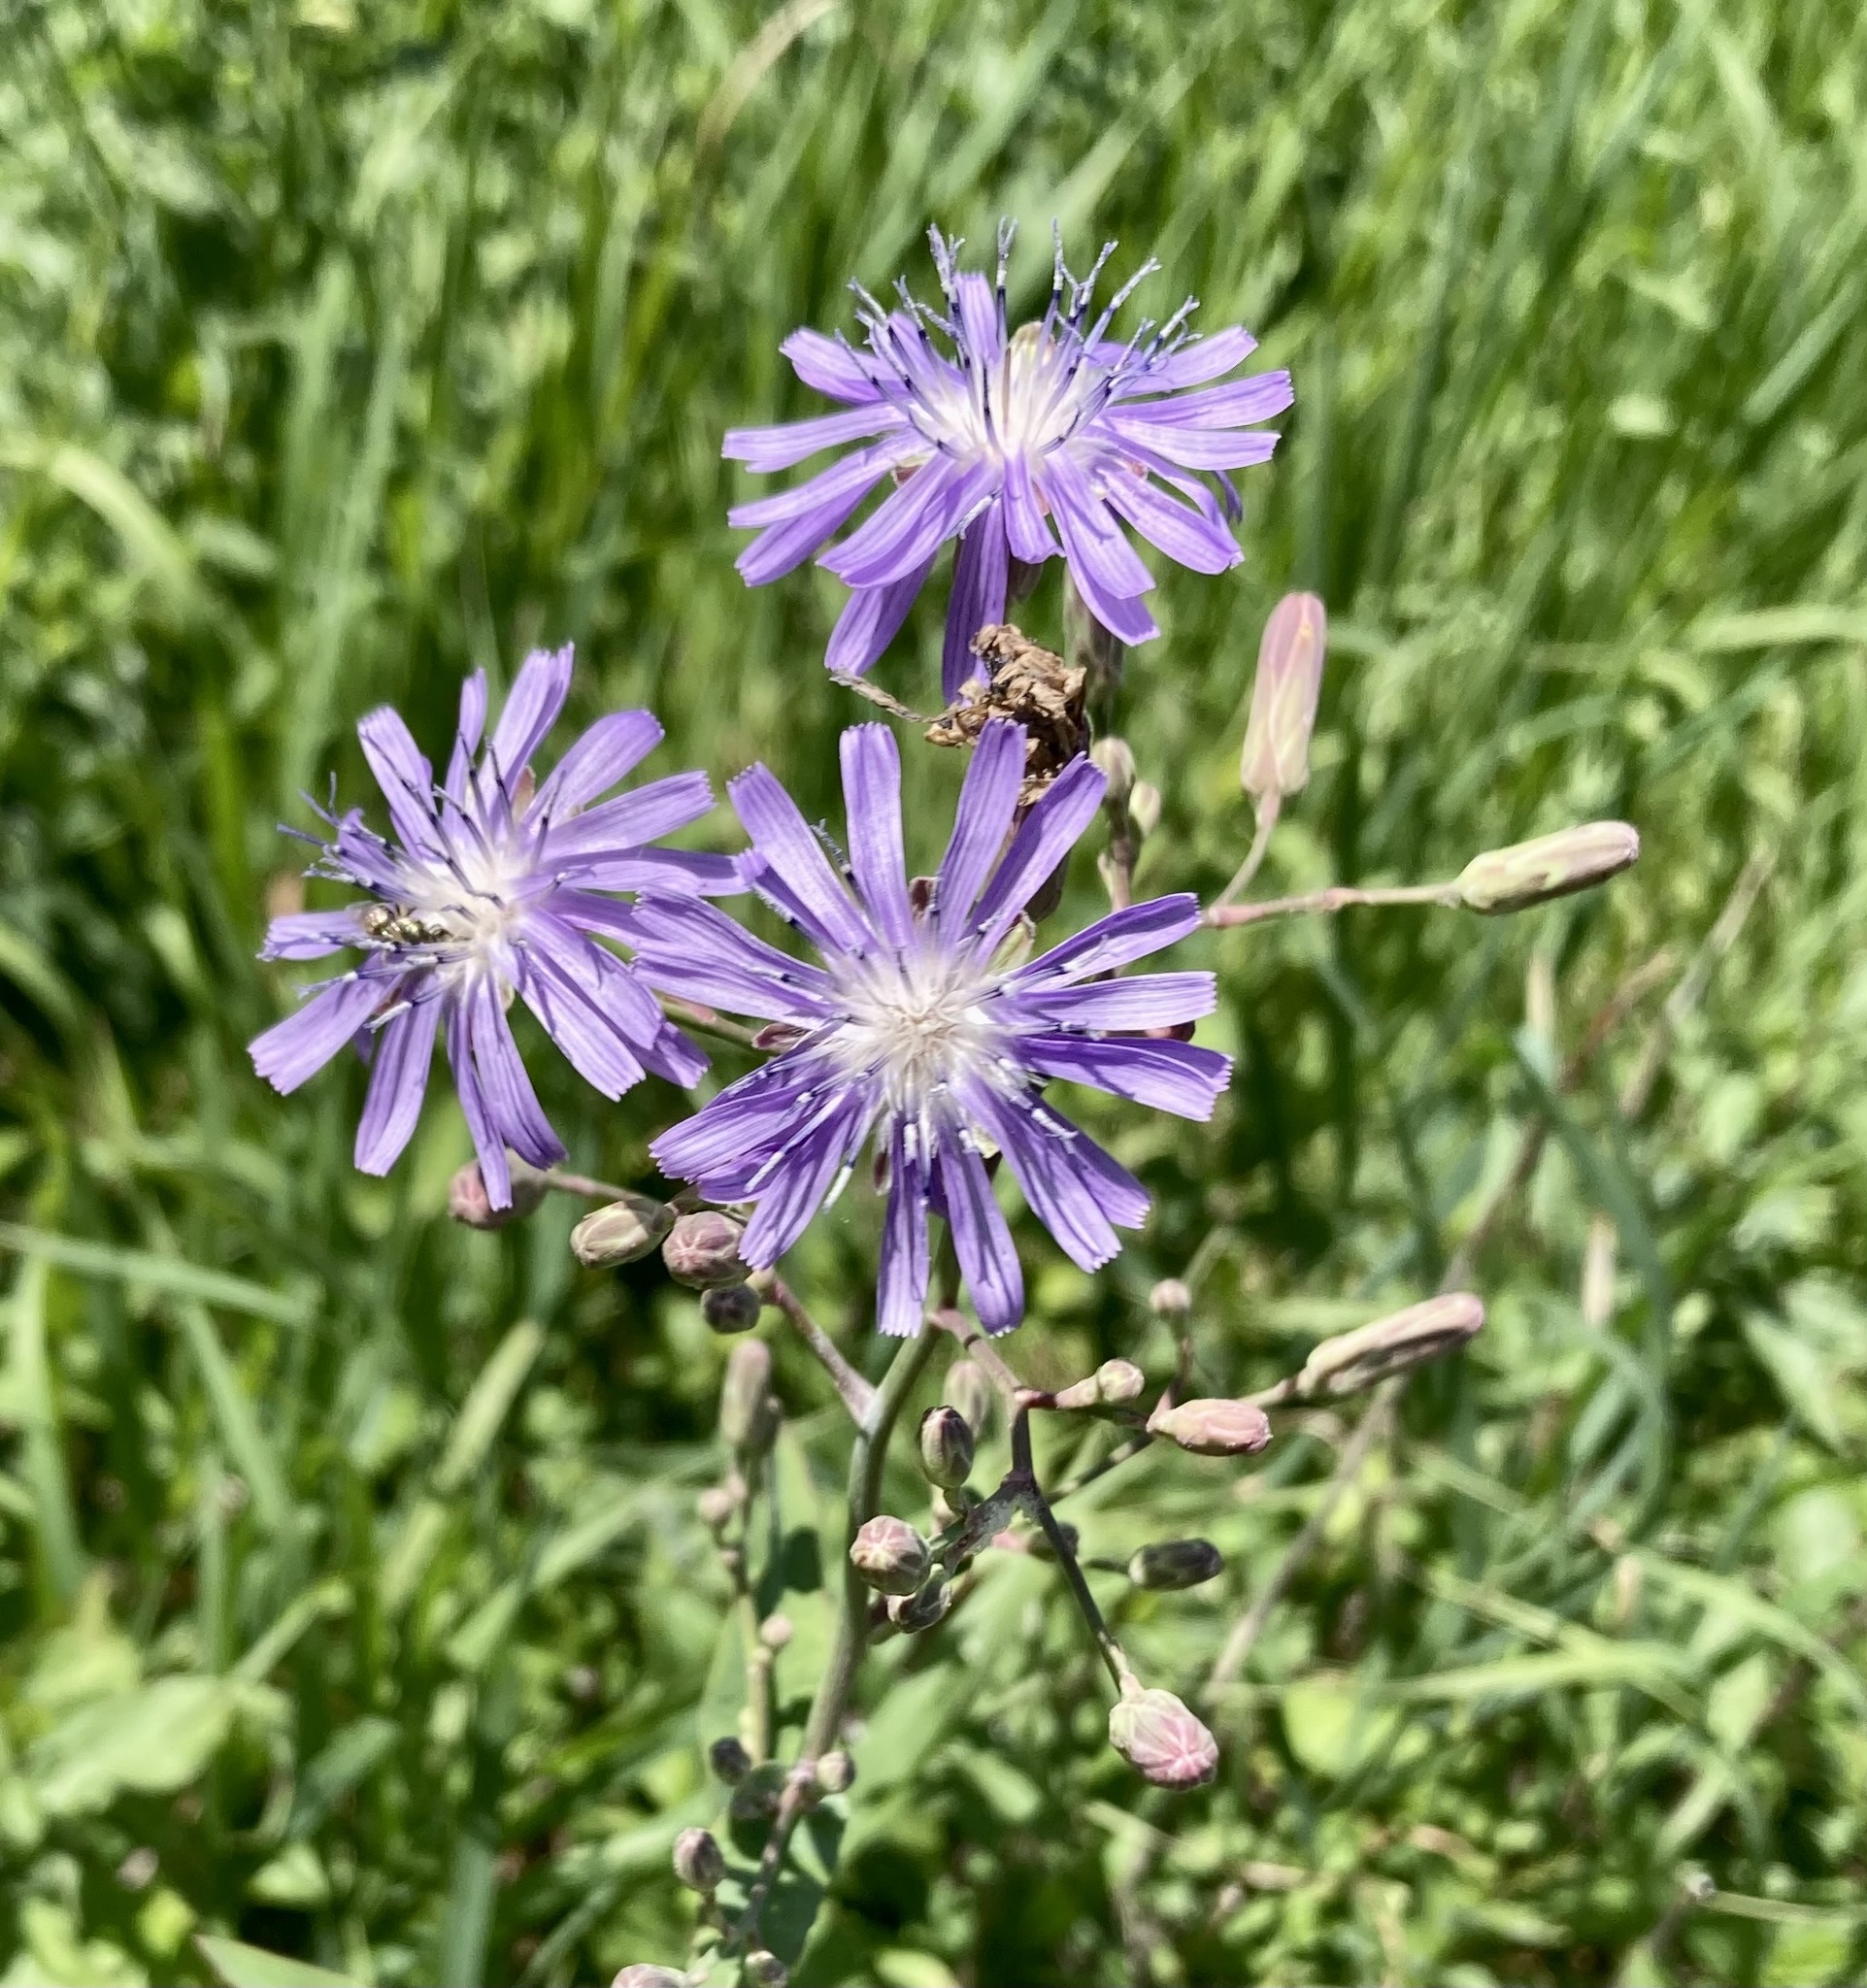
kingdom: Plantae
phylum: Tracheophyta
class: Magnoliopsida
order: Asterales
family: Asteraceae
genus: Lactuca
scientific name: Lactuca pulchella
